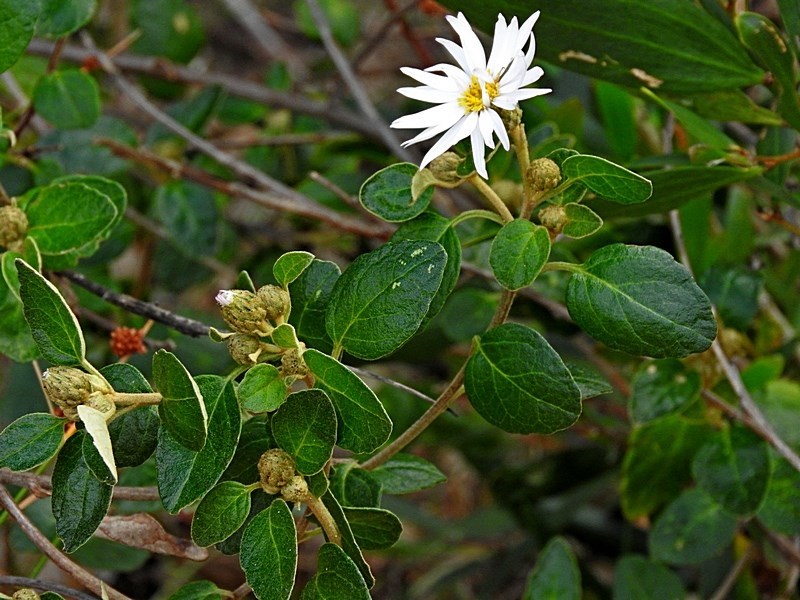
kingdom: Plantae
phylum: Tracheophyta
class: Magnoliopsida
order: Asterales
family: Asteraceae
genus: Olearia
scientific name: Olearia tomentosa
